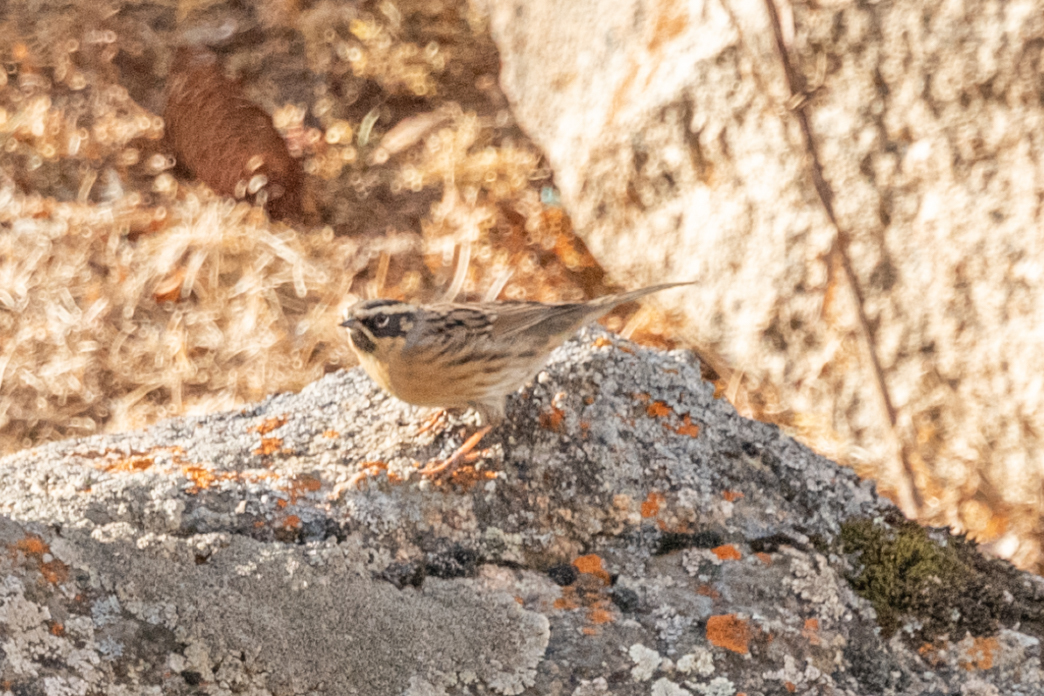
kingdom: Animalia
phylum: Chordata
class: Aves
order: Passeriformes
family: Prunellidae
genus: Prunella
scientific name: Prunella atrogularis
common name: Black-throated accentor
